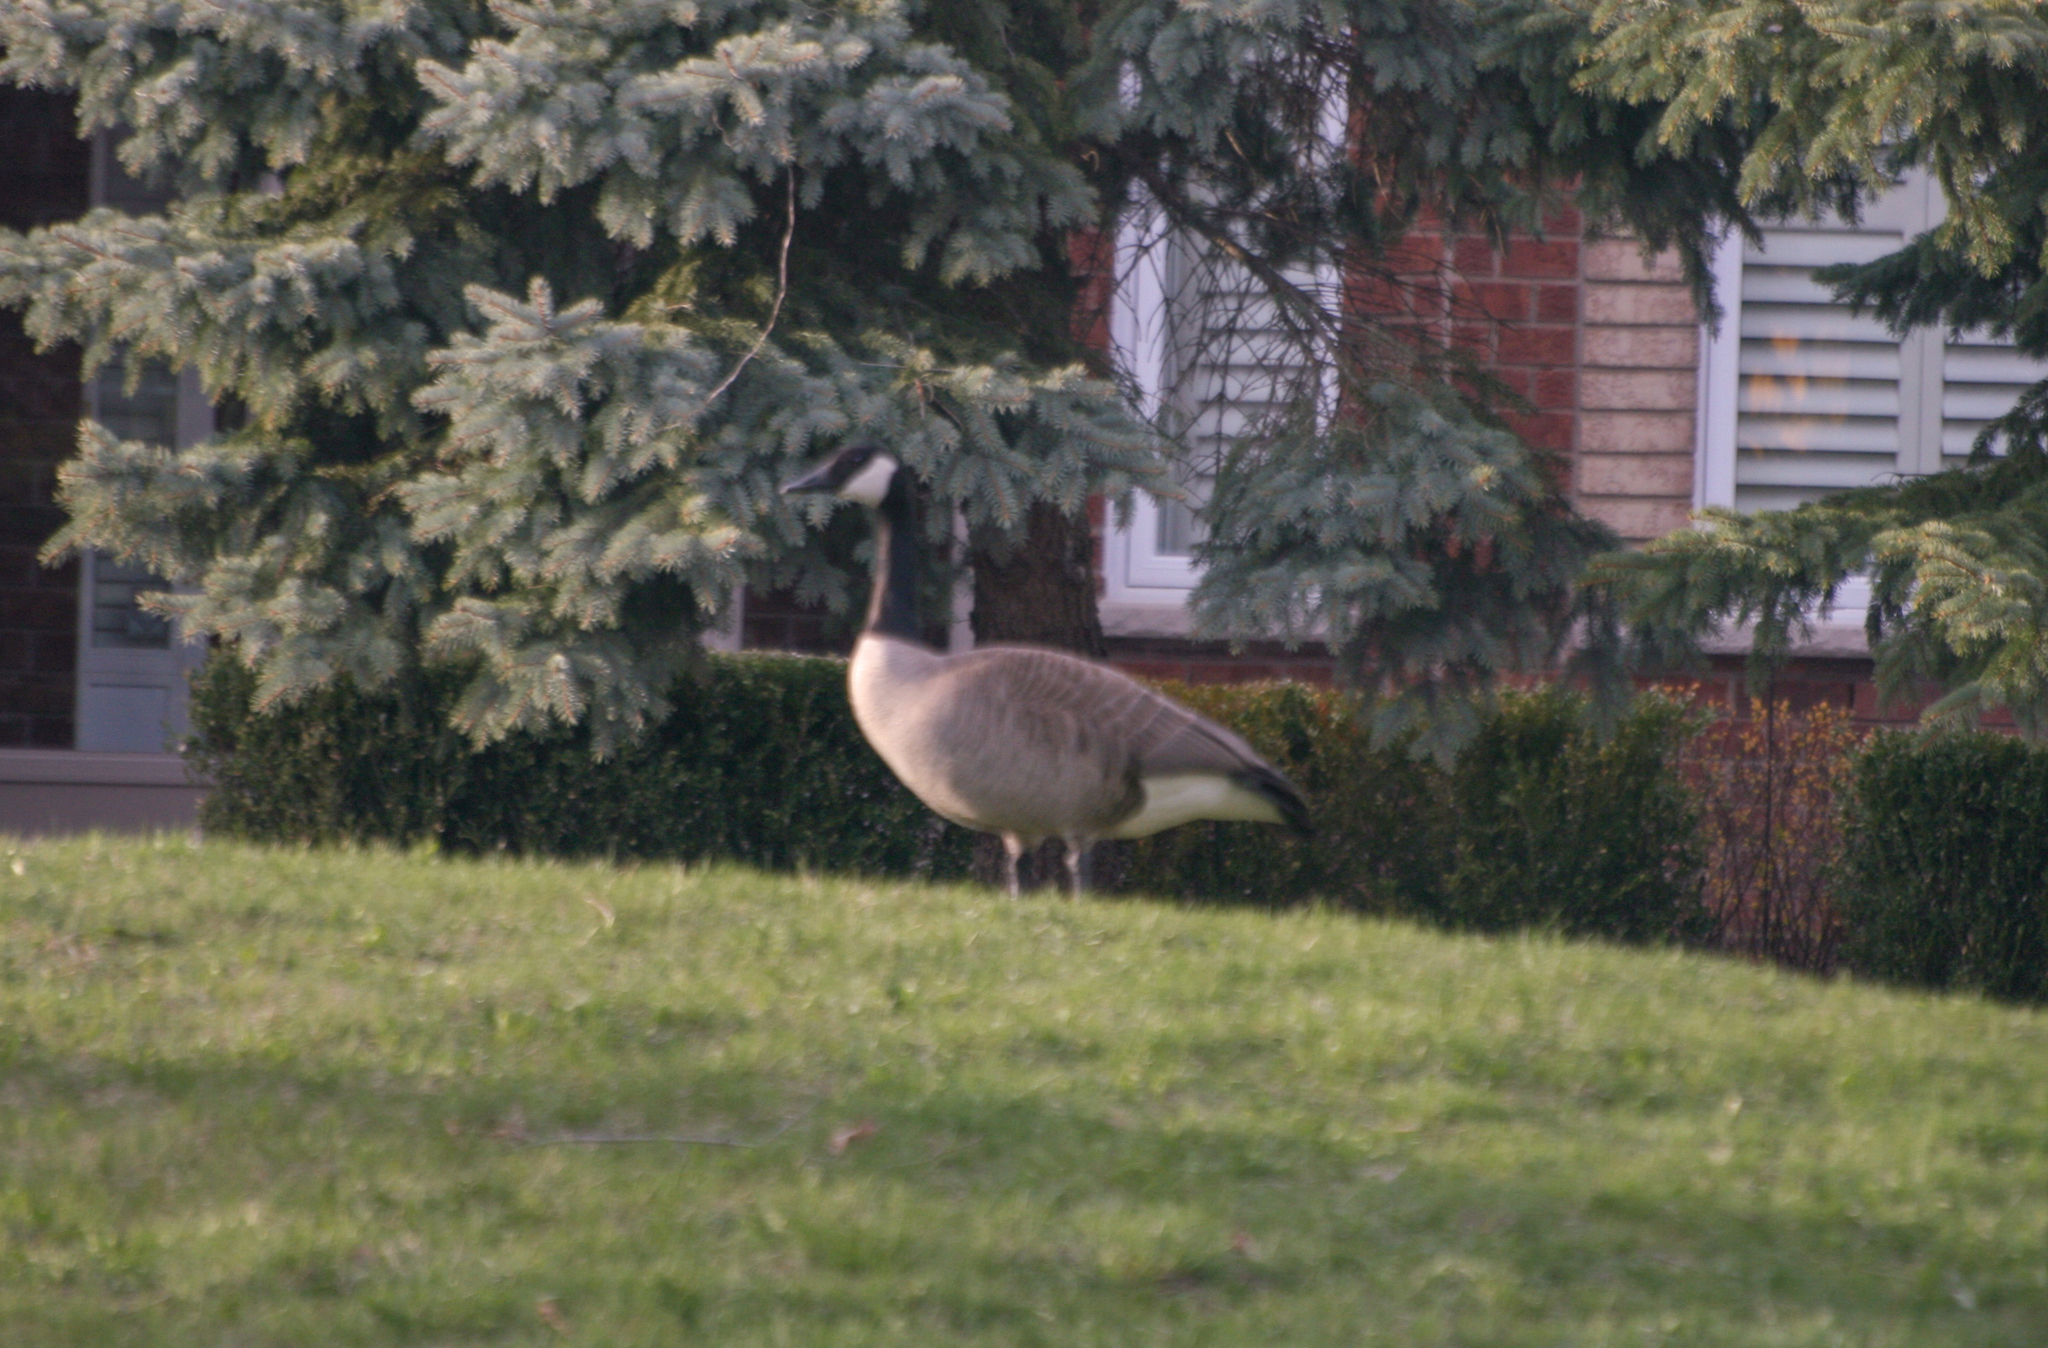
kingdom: Animalia
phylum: Chordata
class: Aves
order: Anseriformes
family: Anatidae
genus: Branta
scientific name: Branta canadensis
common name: Canada goose
